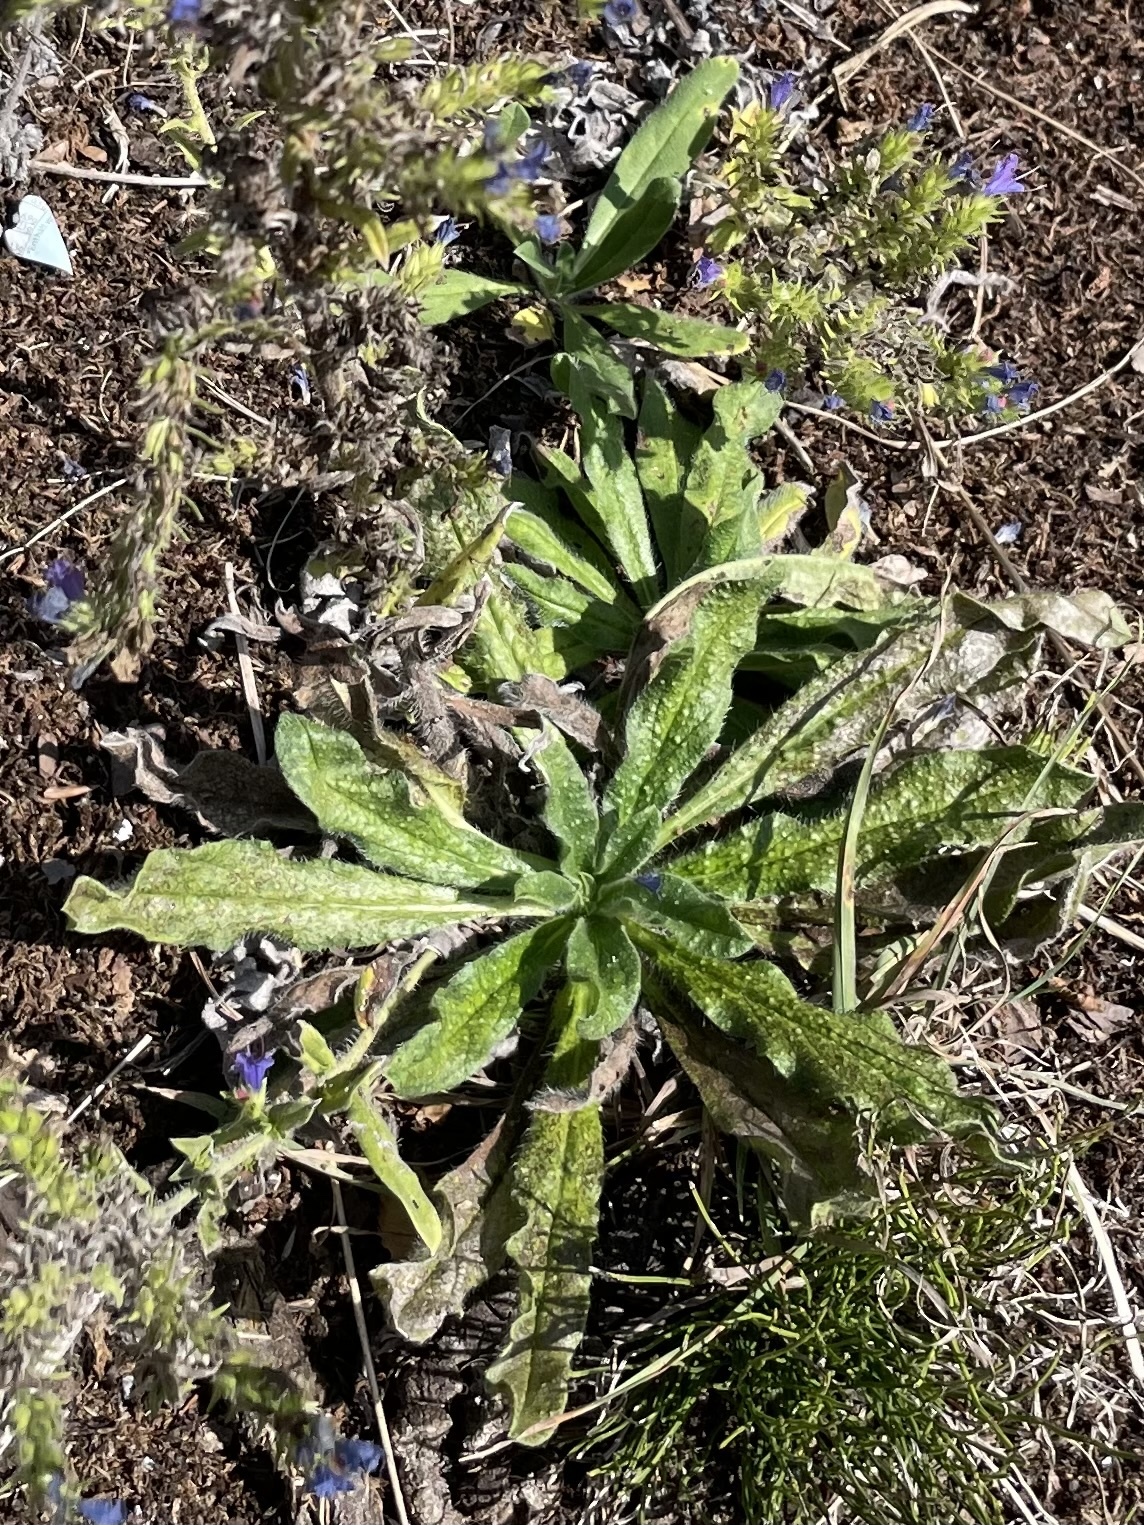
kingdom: Plantae
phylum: Tracheophyta
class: Magnoliopsida
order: Boraginales
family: Boraginaceae
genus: Echium
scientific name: Echium vulgare
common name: Common viper's bugloss
